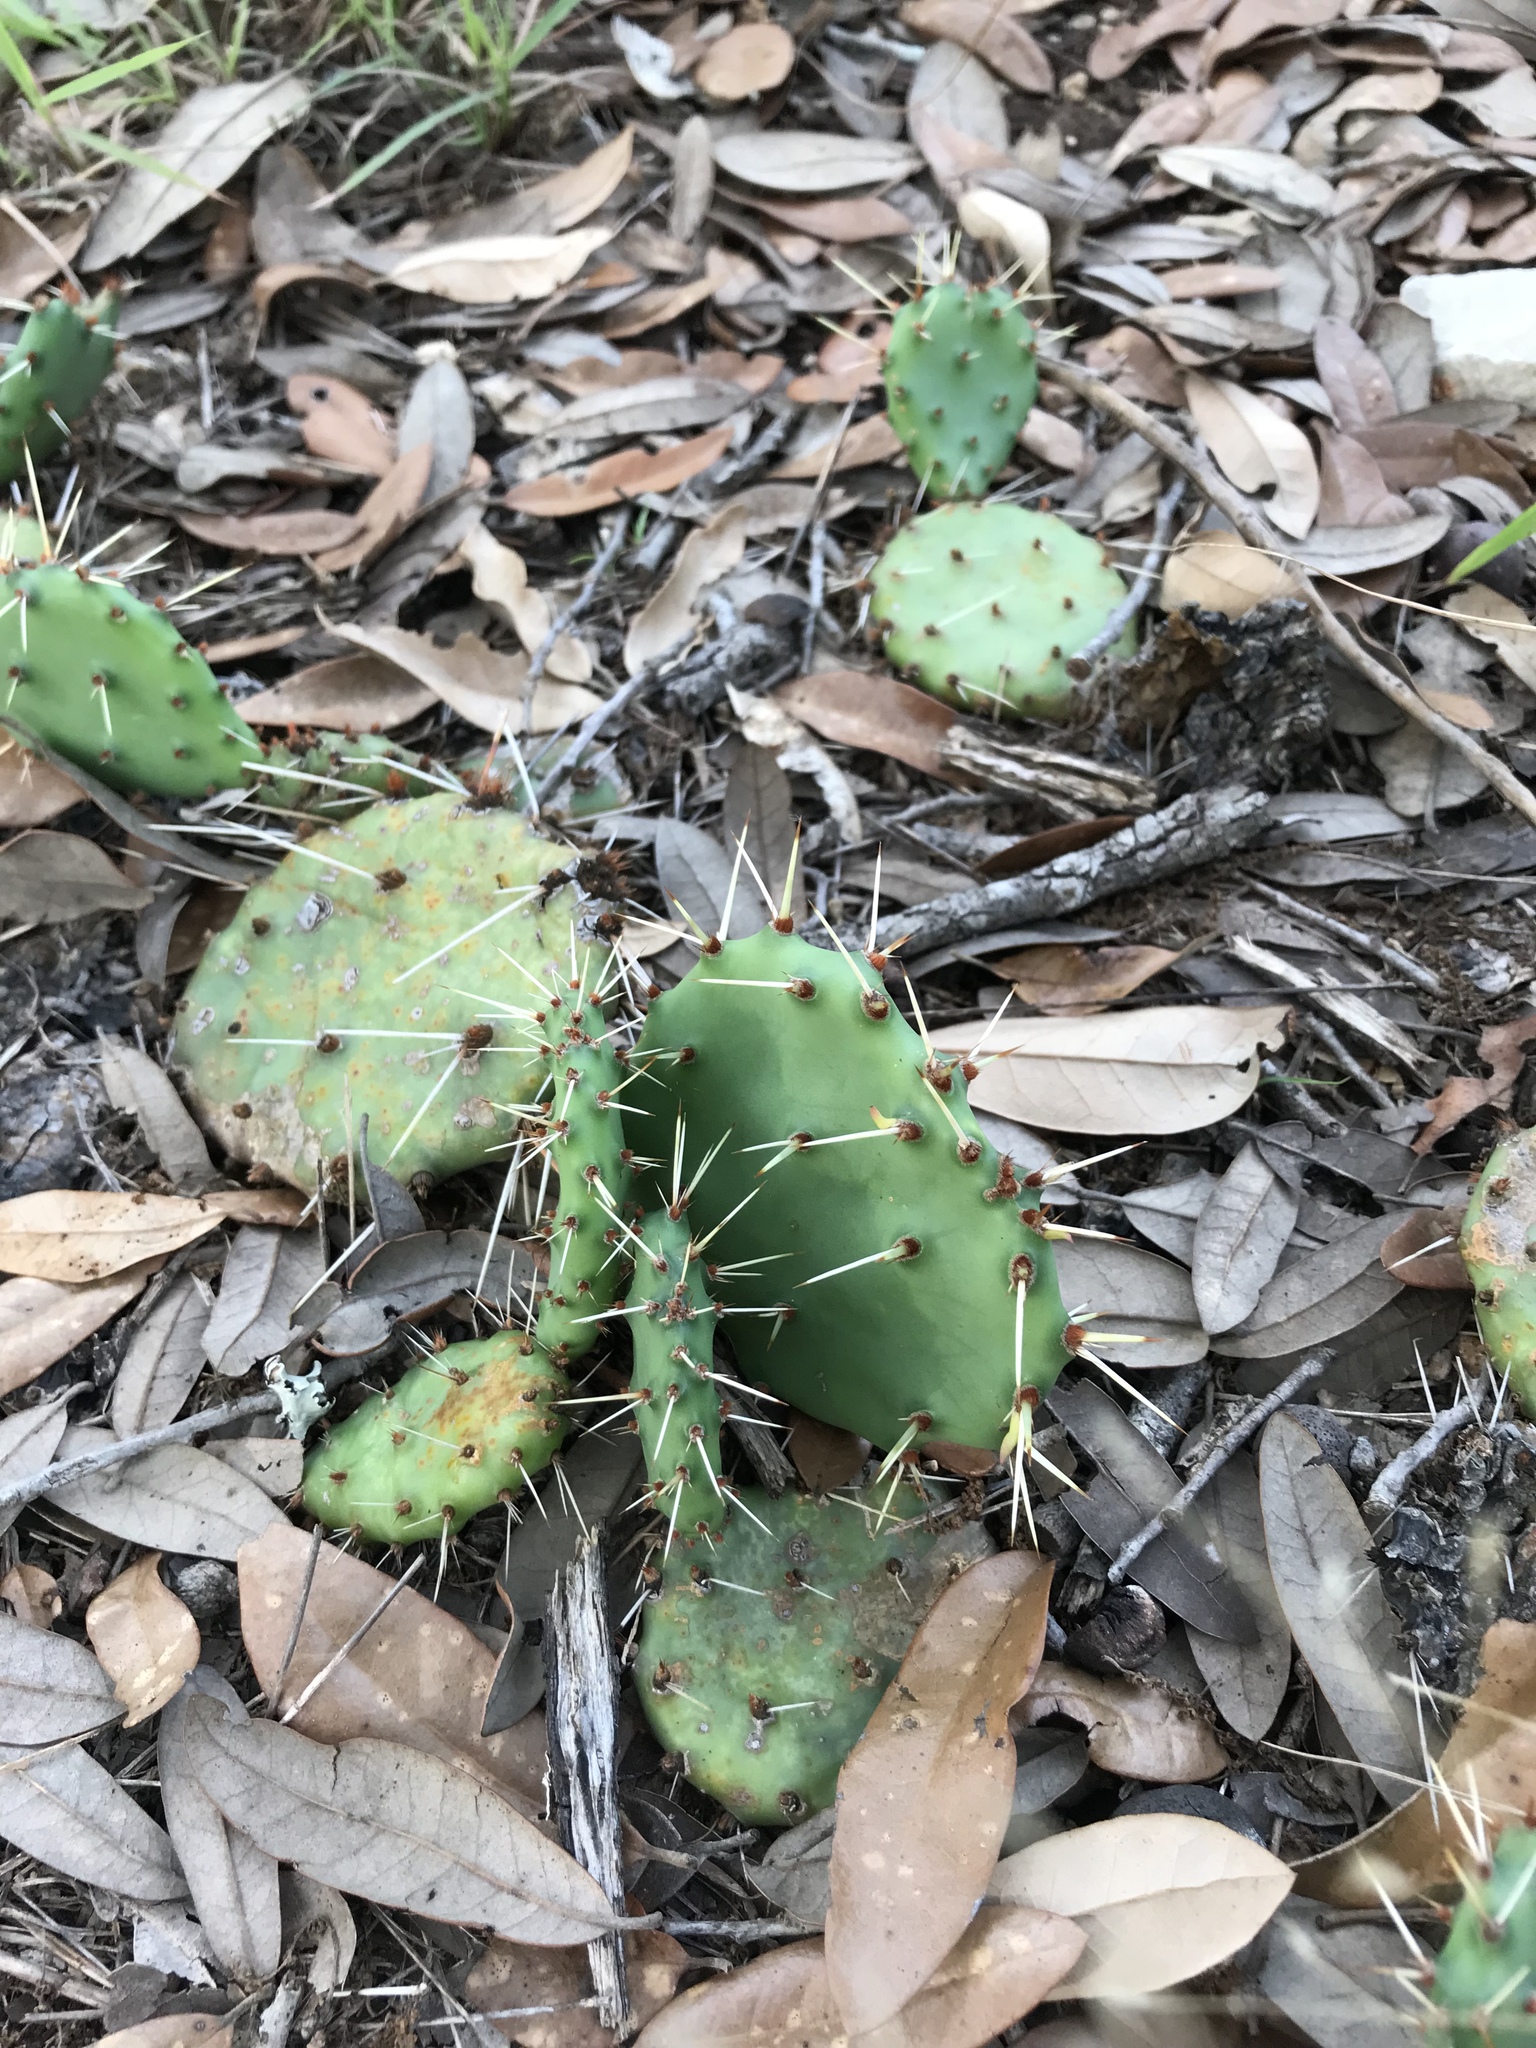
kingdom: Plantae
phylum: Tracheophyta
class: Magnoliopsida
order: Caryophyllales
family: Cactaceae
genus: Opuntia
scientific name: Opuntia macrorhiza
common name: Grassland pricklypear
